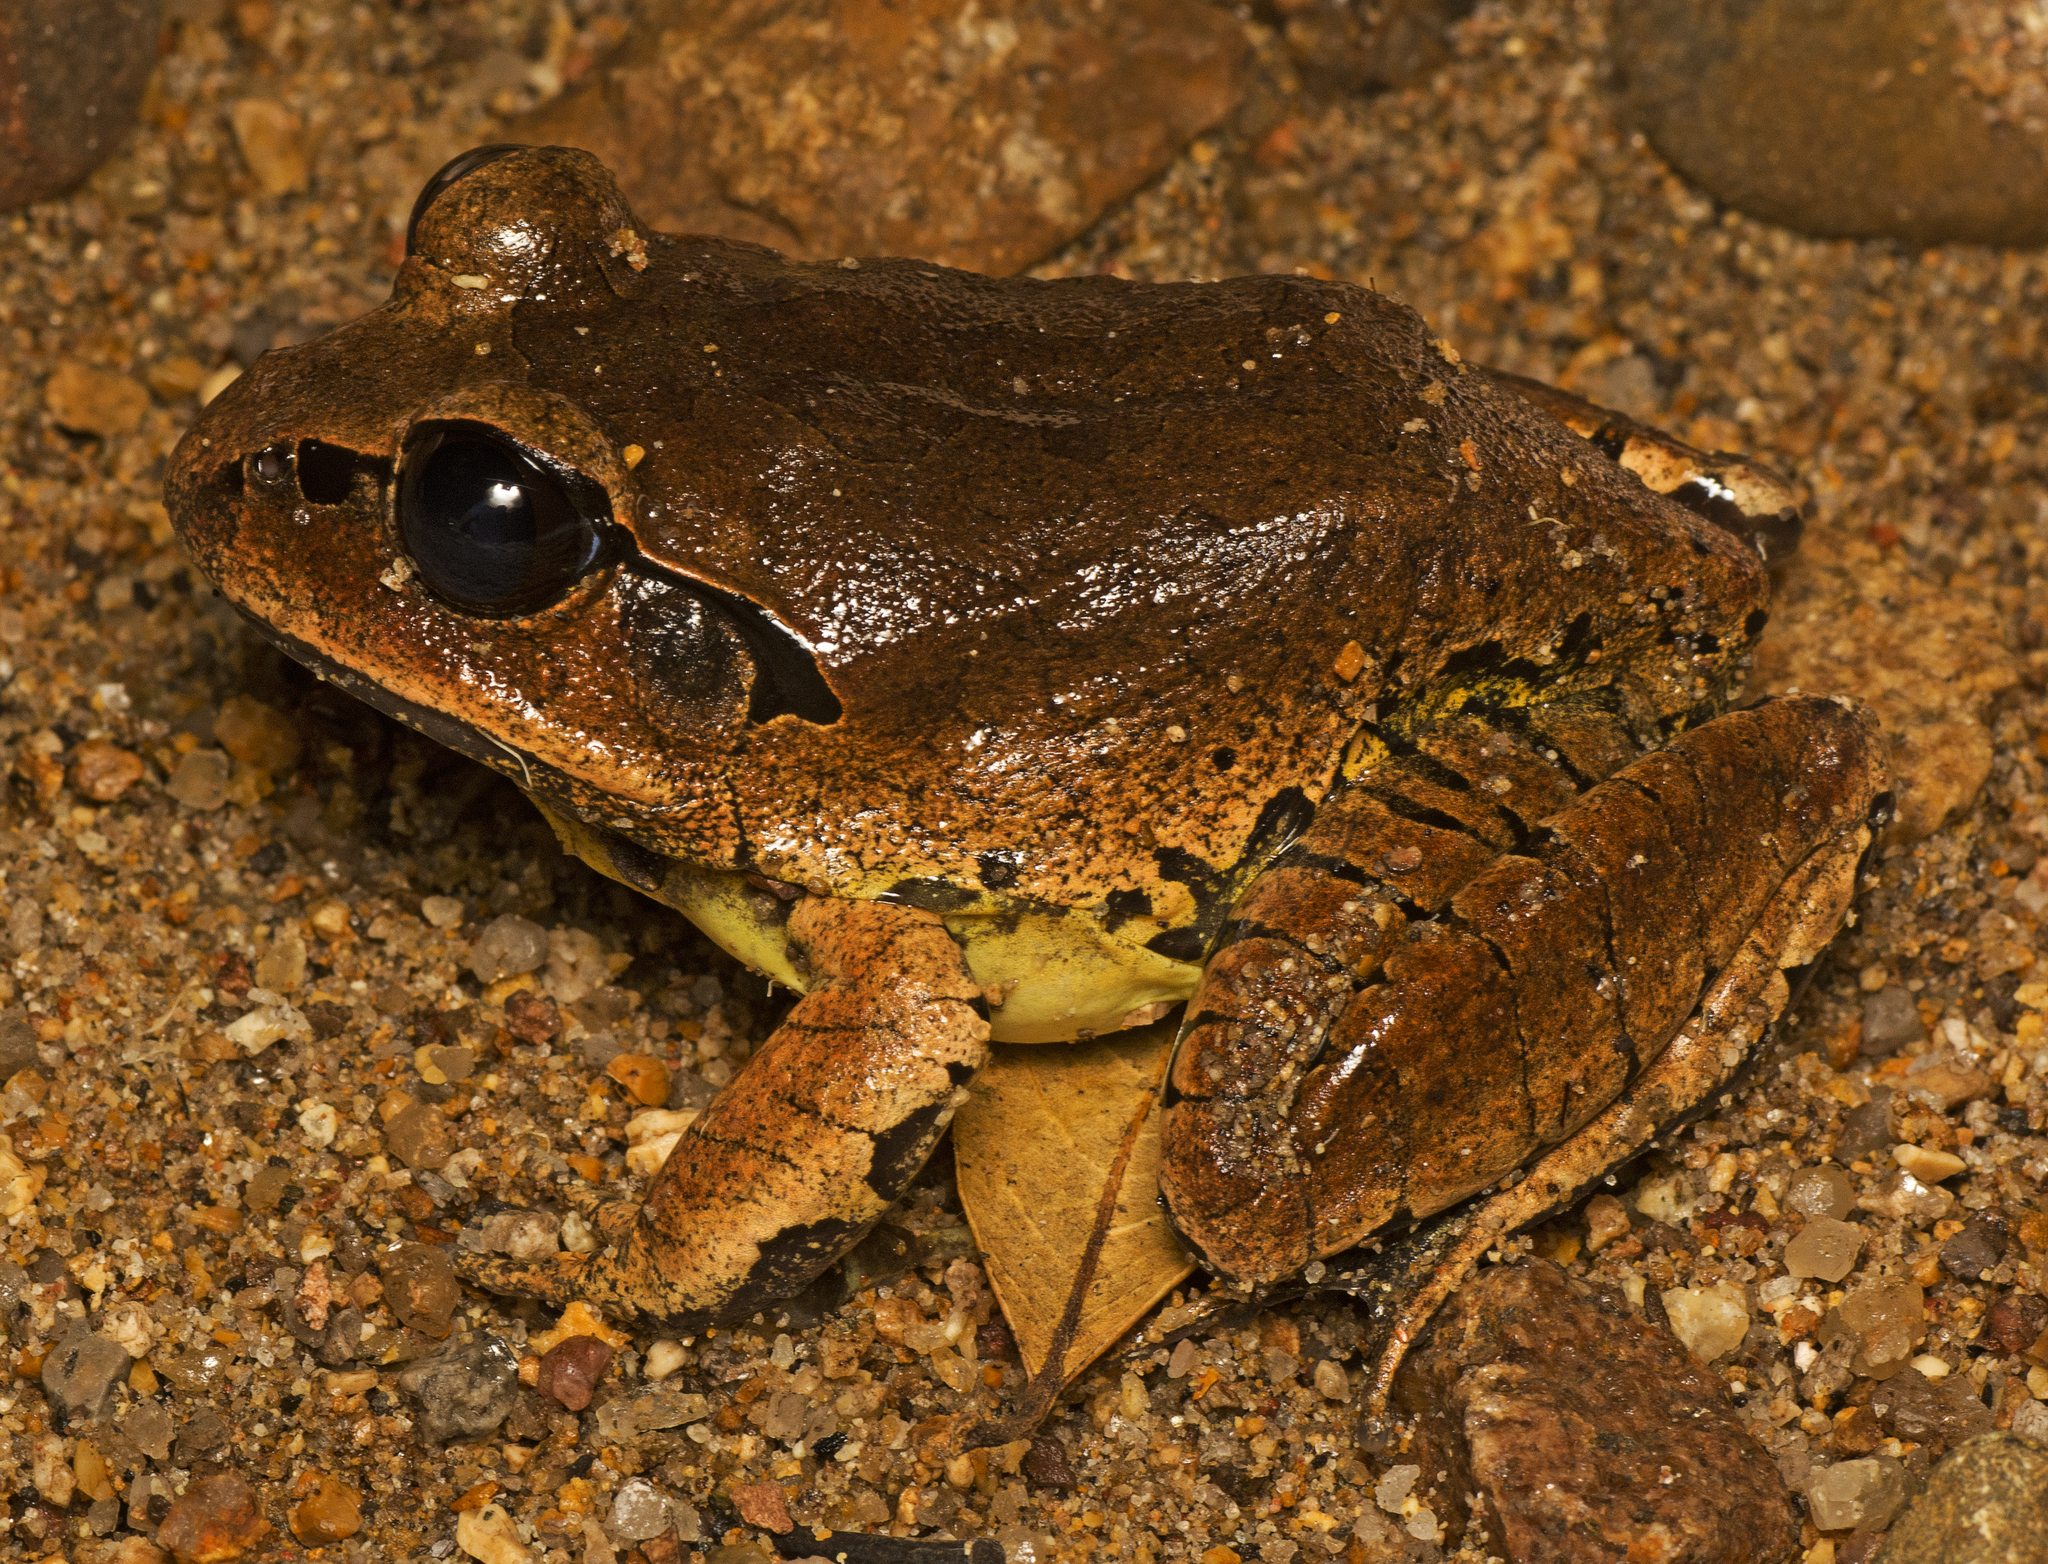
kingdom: Animalia
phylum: Chordata
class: Amphibia
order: Anura
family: Myobatrachidae
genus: Mixophyes
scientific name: Mixophyes fasciolatus
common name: Great barred river-frog
